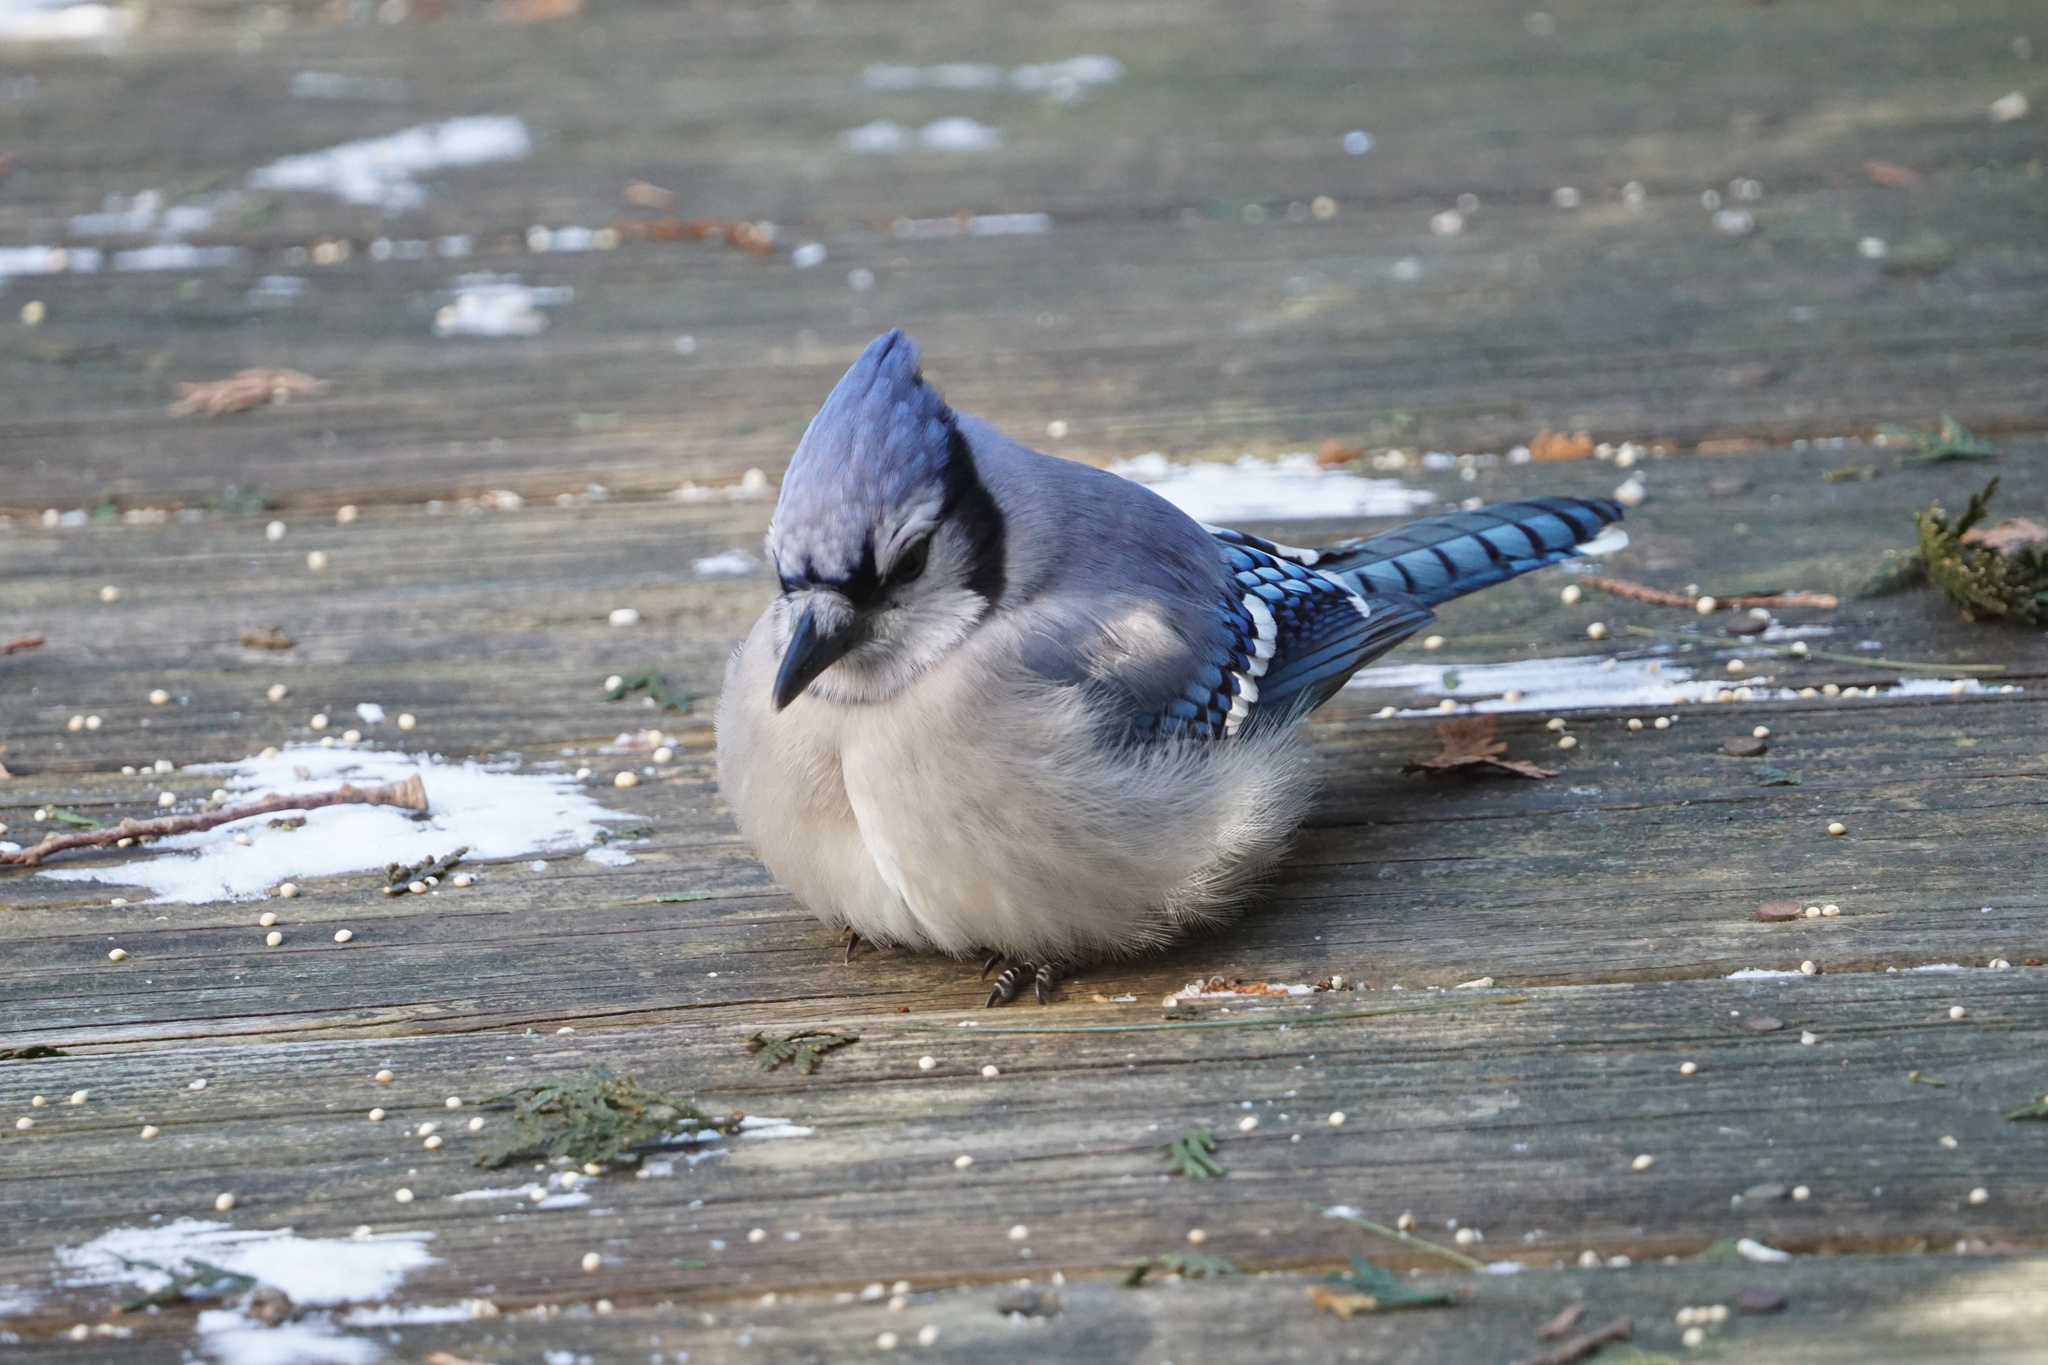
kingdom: Animalia
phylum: Chordata
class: Aves
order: Passeriformes
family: Corvidae
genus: Cyanocitta
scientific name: Cyanocitta cristata
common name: Blue jay
